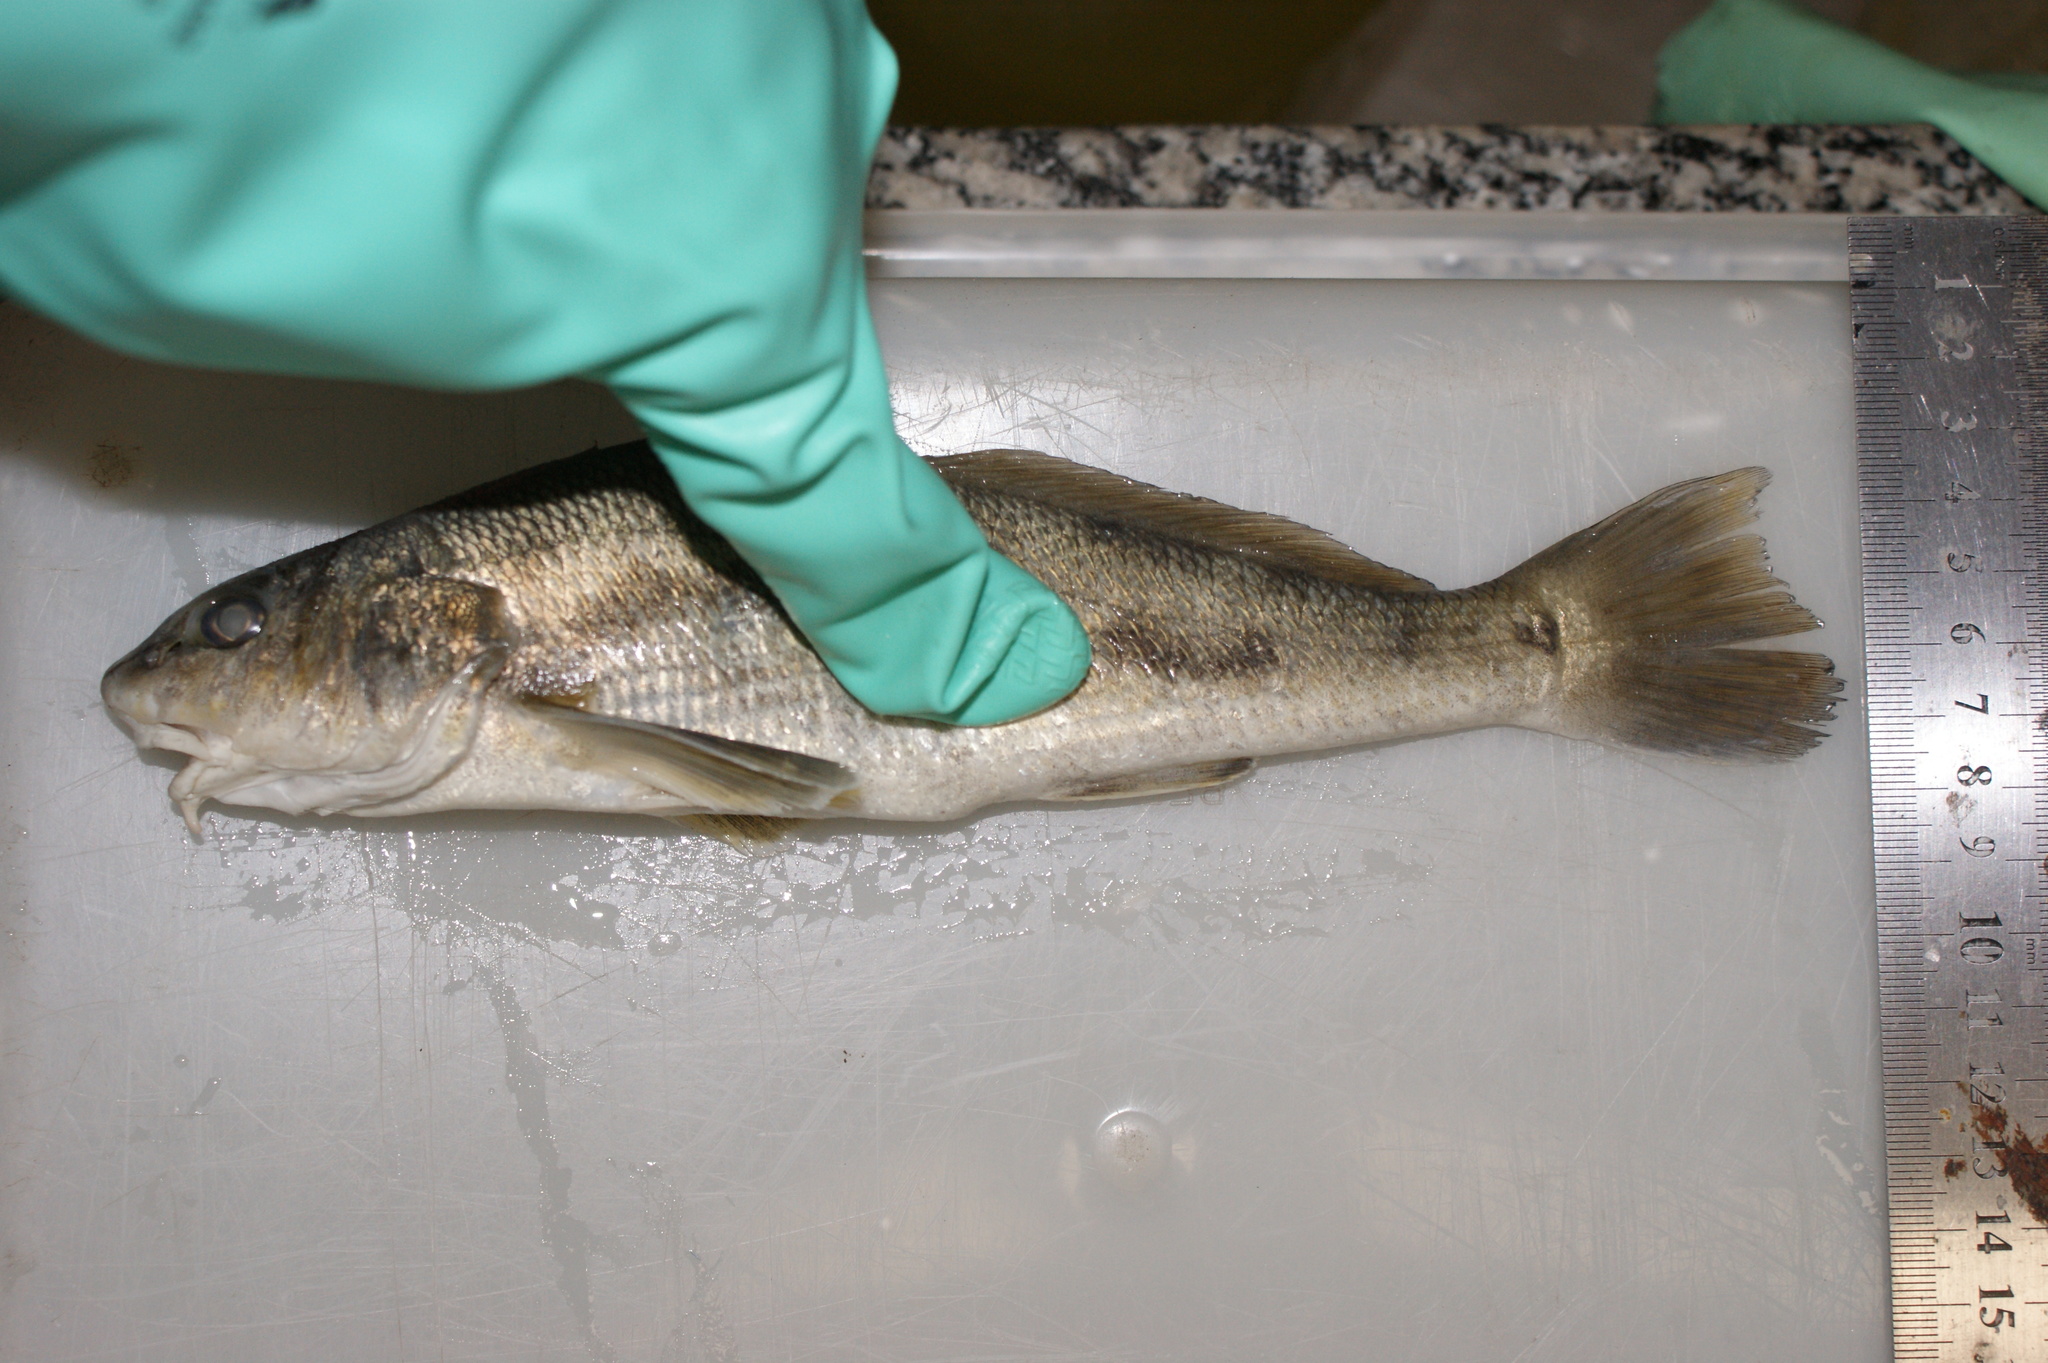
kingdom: Animalia
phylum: Chordata
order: Perciformes
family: Sciaenidae
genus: Menticirrhus
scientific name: Menticirrhus americanus
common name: Southern kingfish
